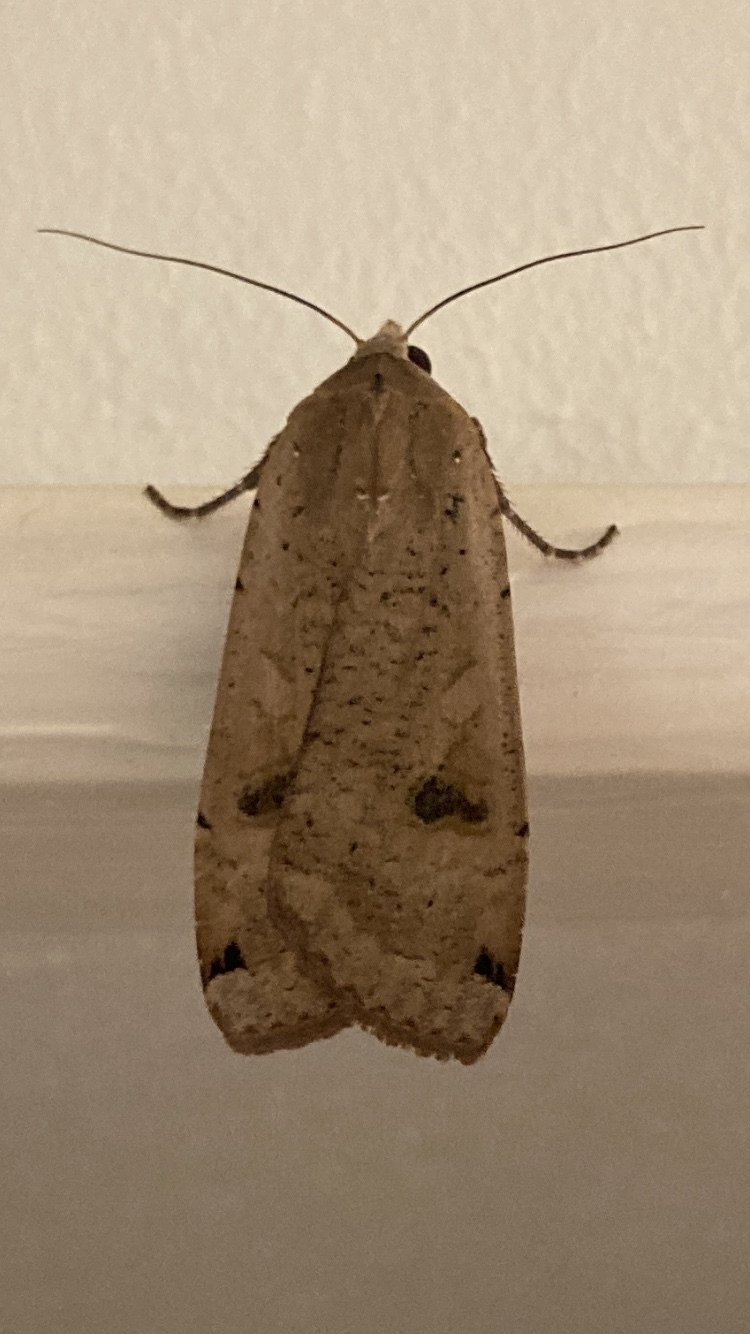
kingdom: Animalia
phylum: Arthropoda
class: Insecta
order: Lepidoptera
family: Noctuidae
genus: Noctua
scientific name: Noctua pronuba
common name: Large yellow underwing
